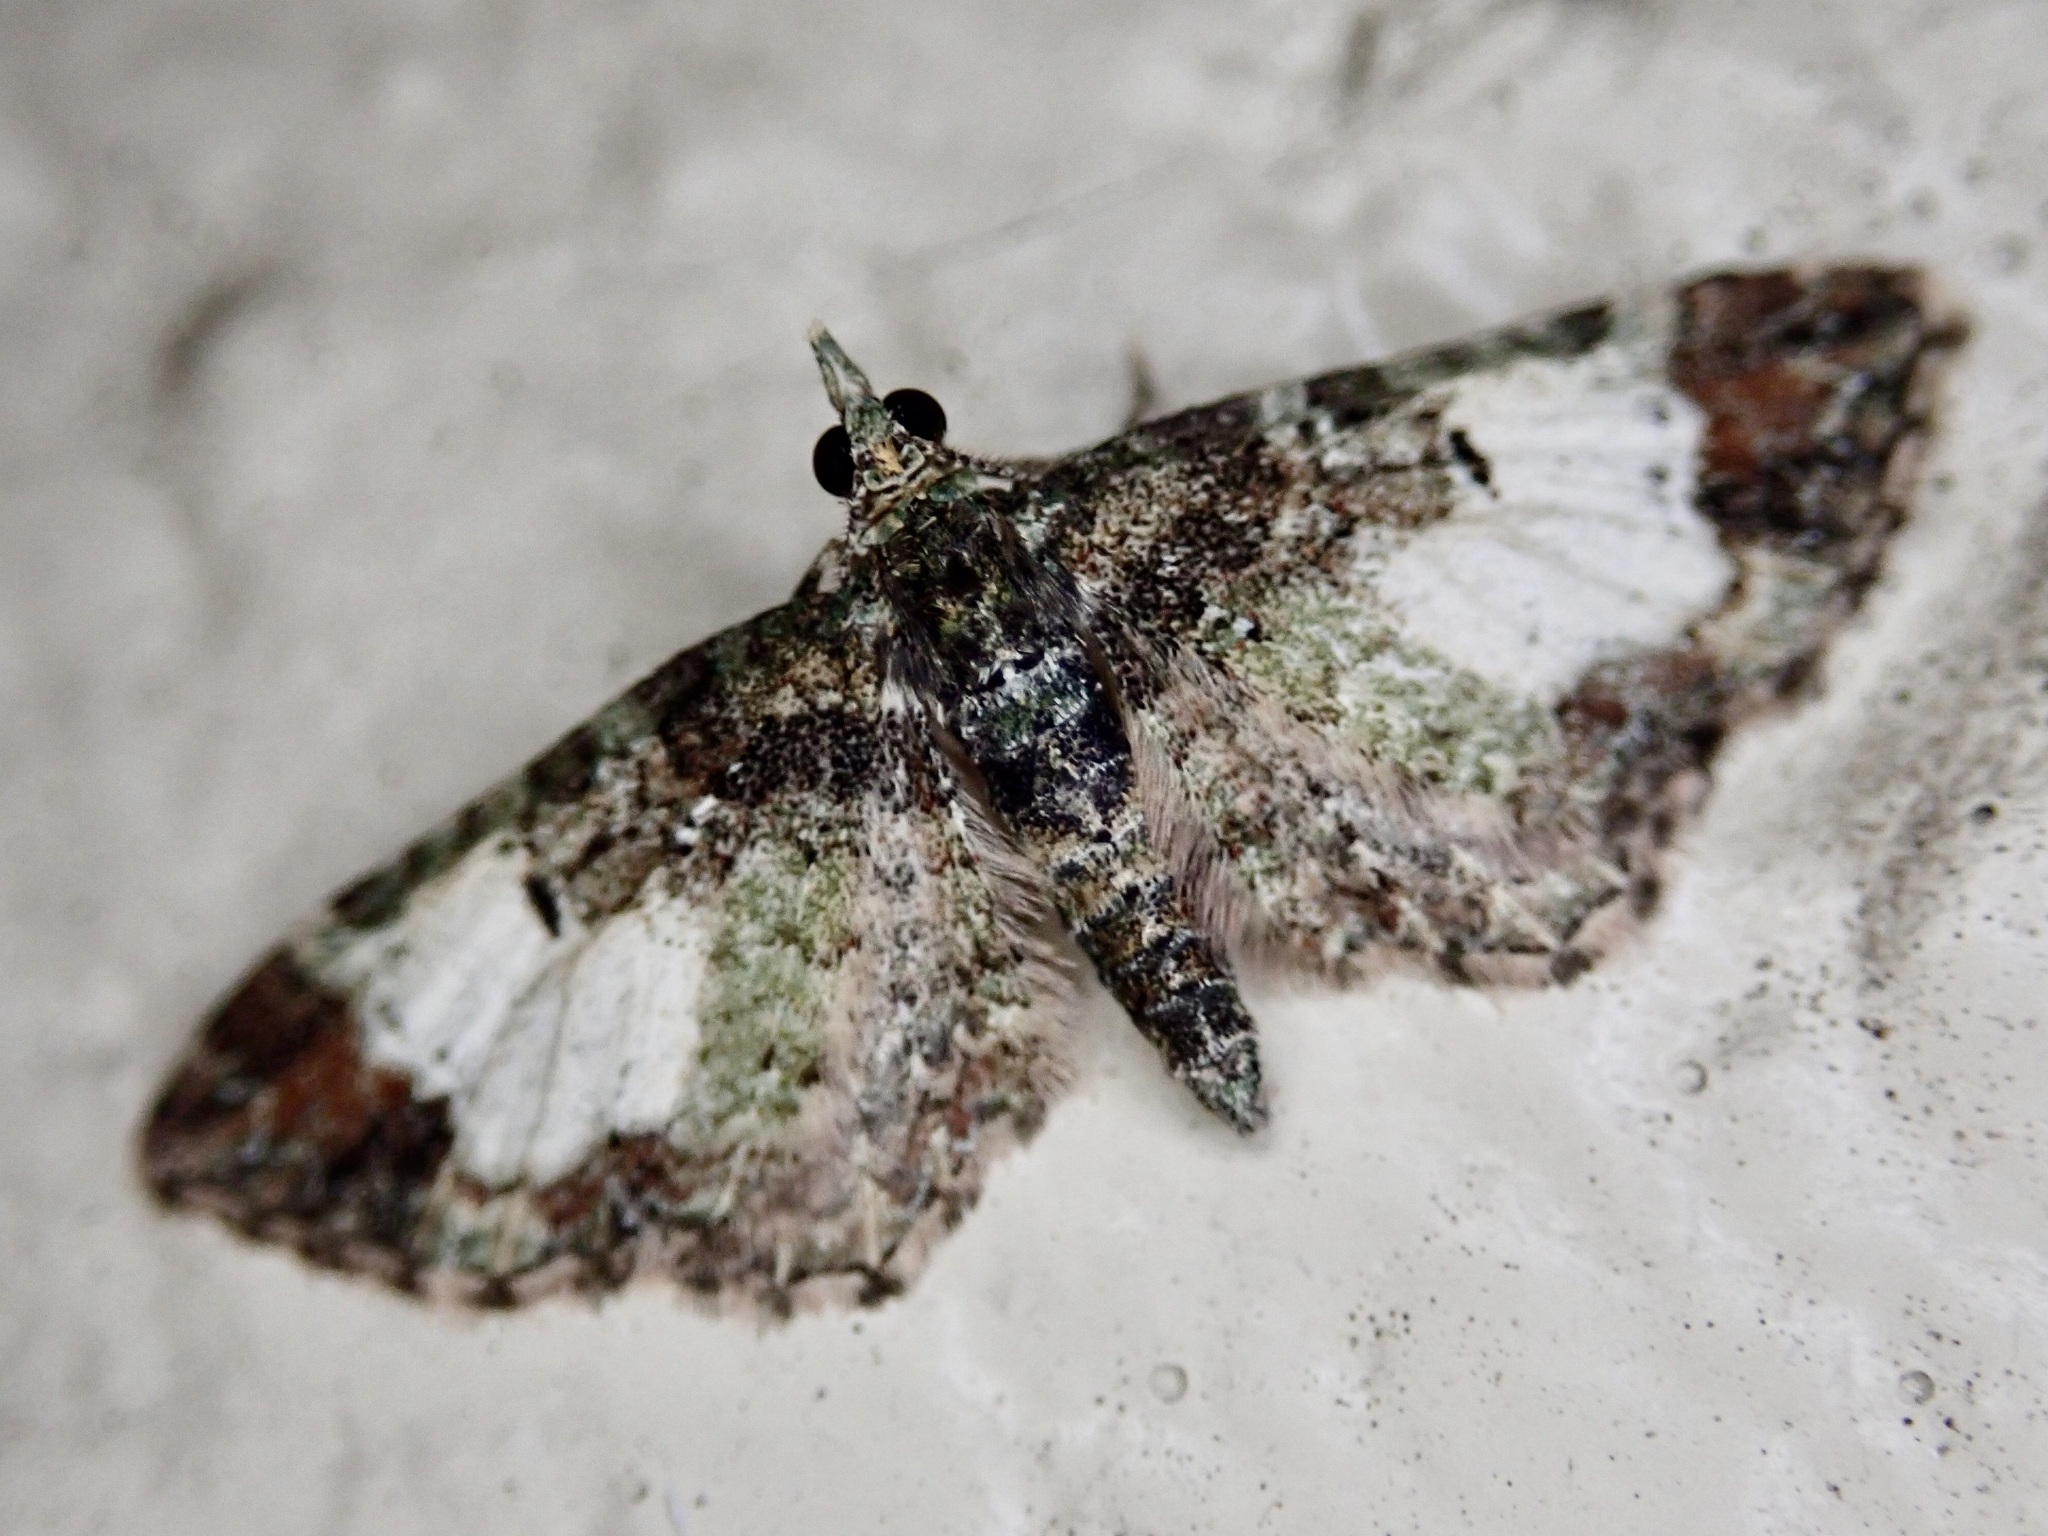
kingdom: Animalia
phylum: Arthropoda
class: Insecta
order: Lepidoptera
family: Geometridae
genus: Pasiphila
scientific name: Pasiphila sandycias
